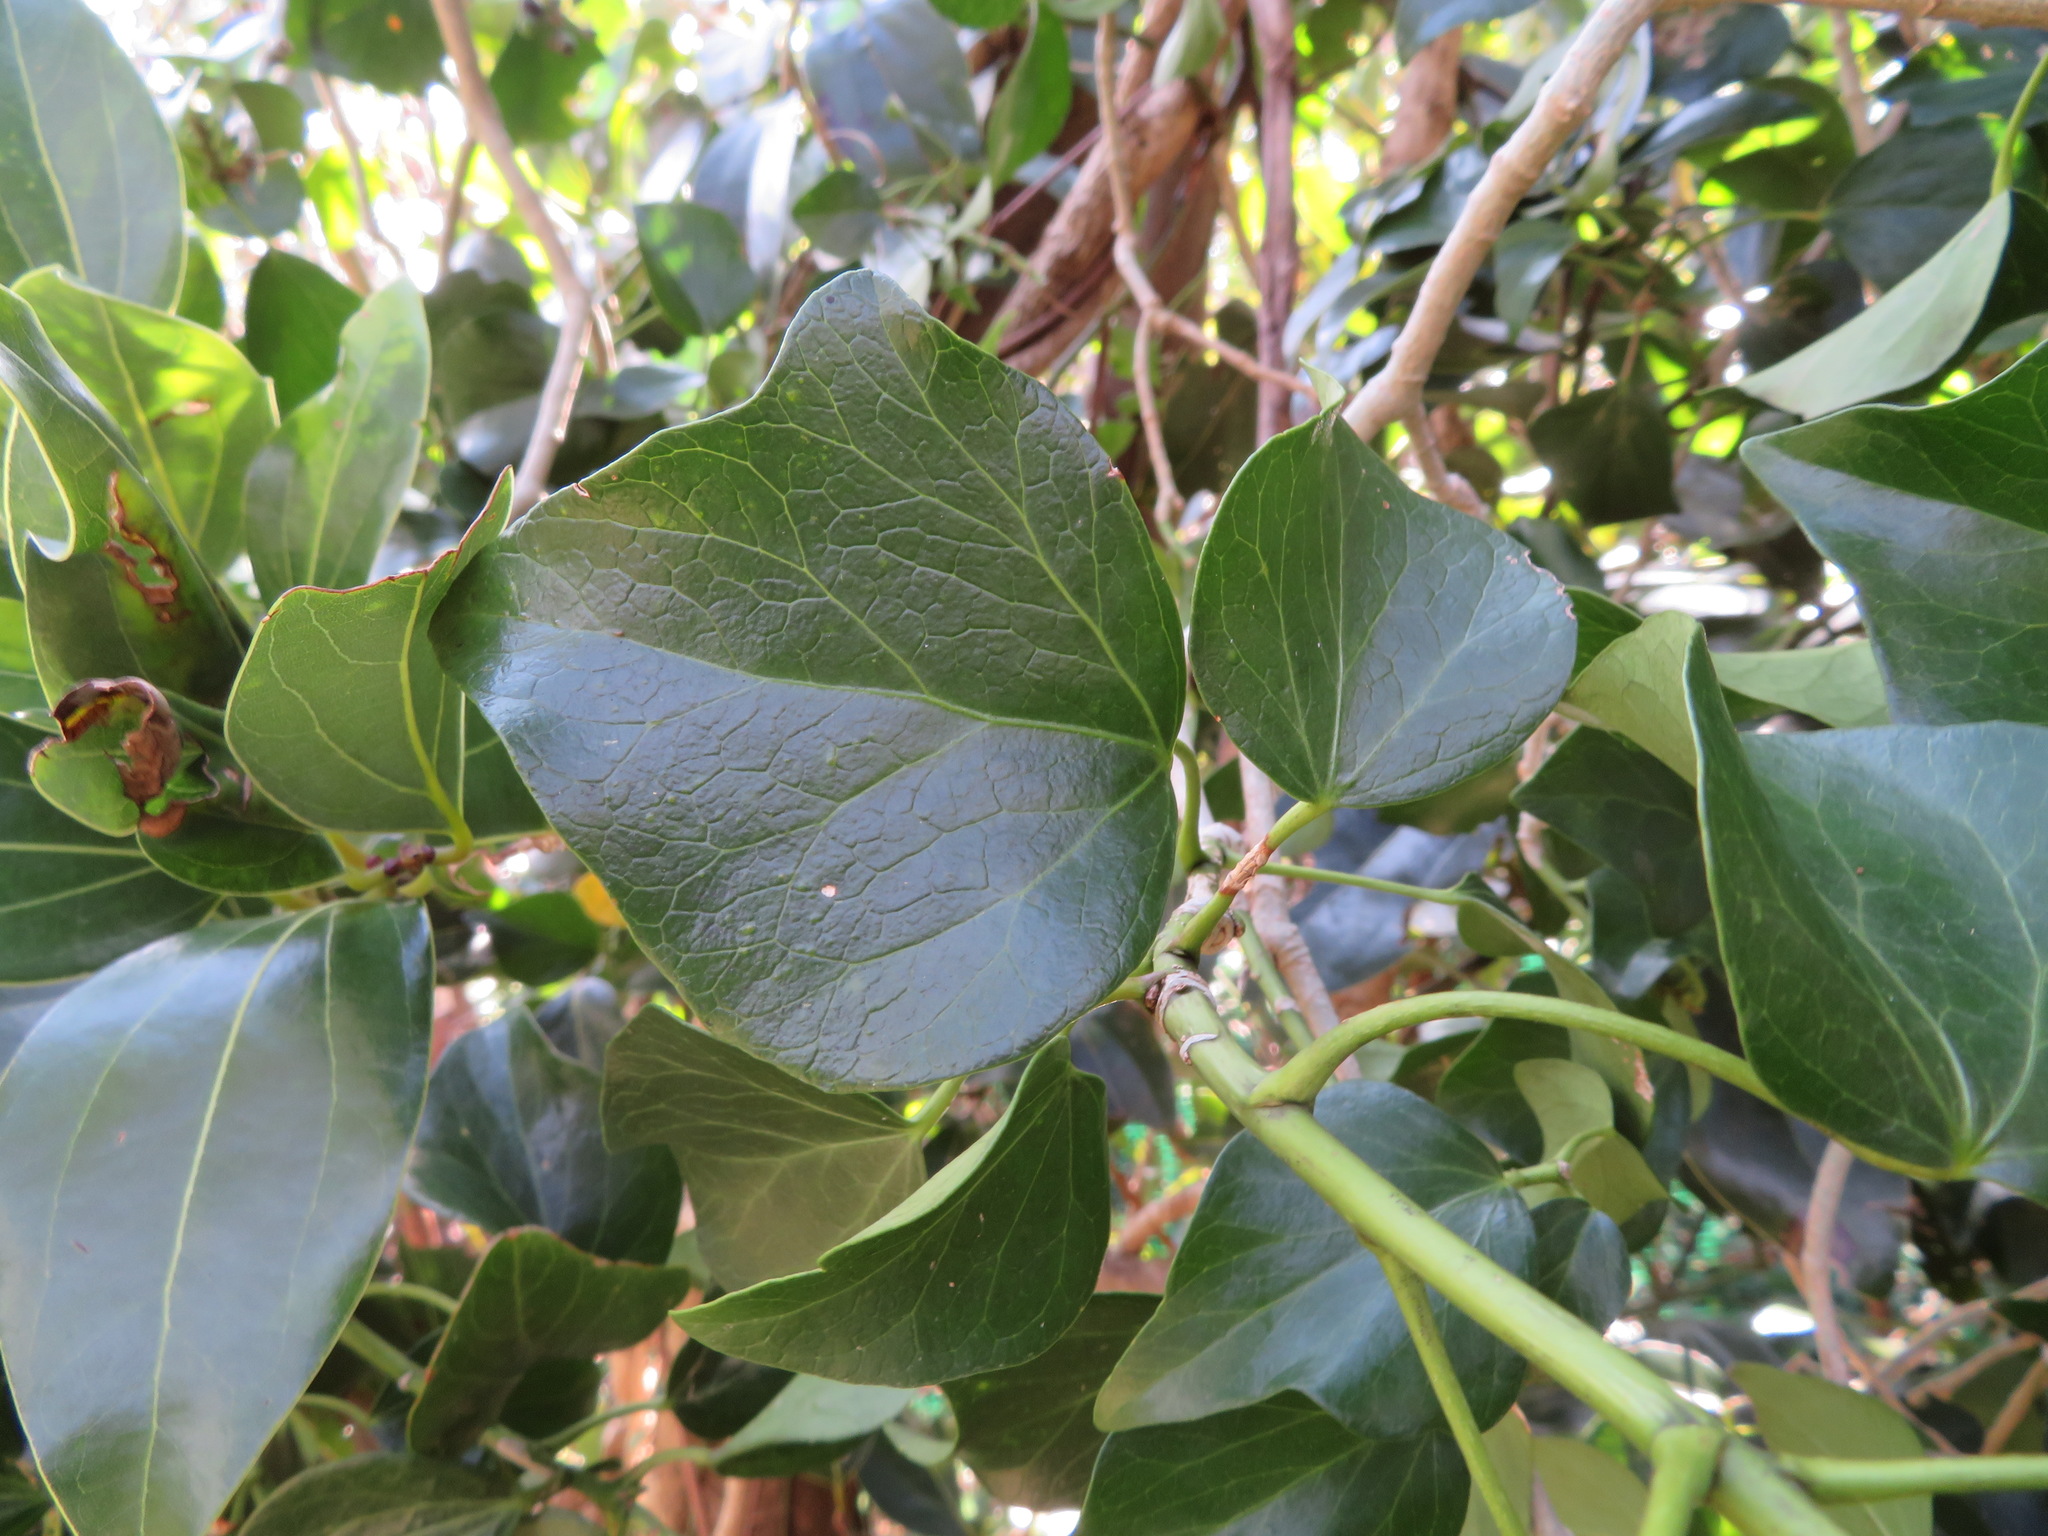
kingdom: Plantae
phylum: Tracheophyta
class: Magnoliopsida
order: Apiales
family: Araliaceae
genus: Hedera
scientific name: Hedera rhombea
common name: Japanese ivy
